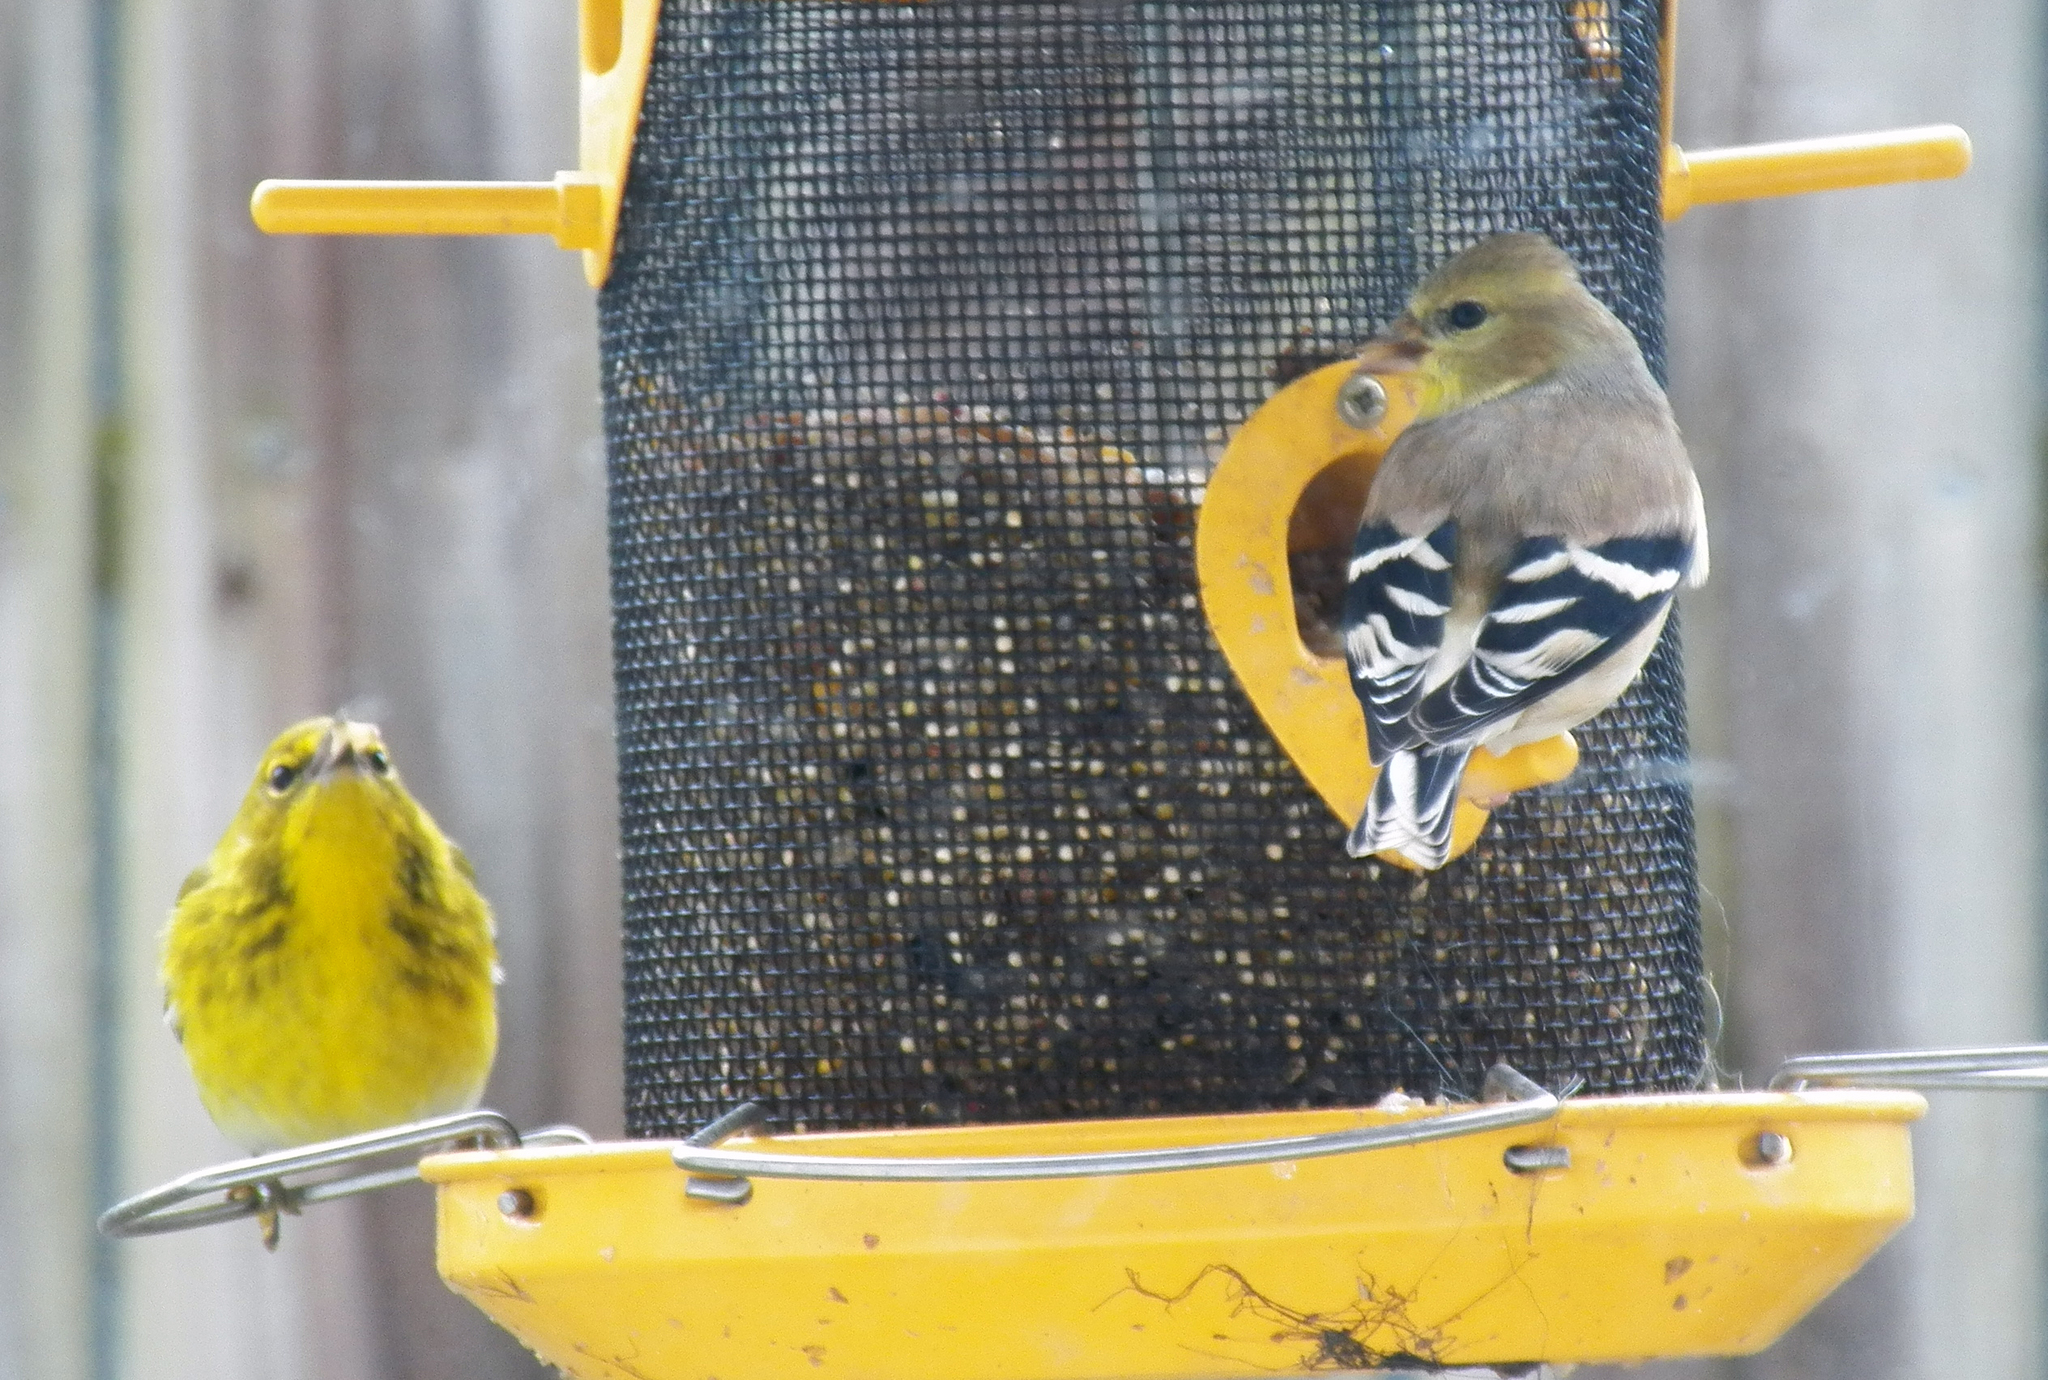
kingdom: Animalia
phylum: Chordata
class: Aves
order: Passeriformes
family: Fringillidae
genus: Spinus
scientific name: Spinus tristis
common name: American goldfinch
